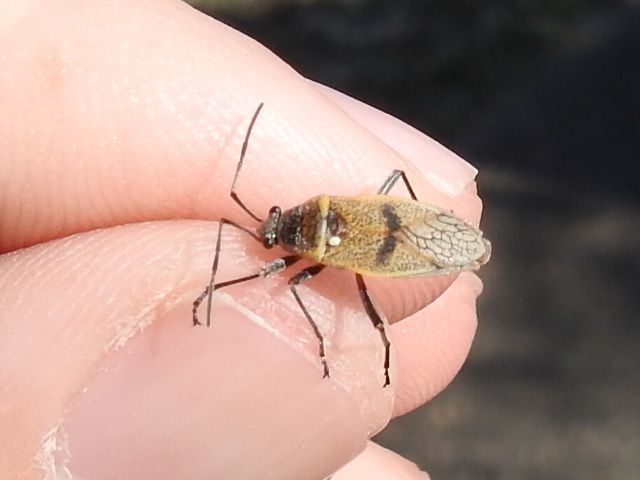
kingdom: Animalia
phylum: Arthropoda
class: Insecta
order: Hemiptera
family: Largidae
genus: Largus
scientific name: Largus maculatus
